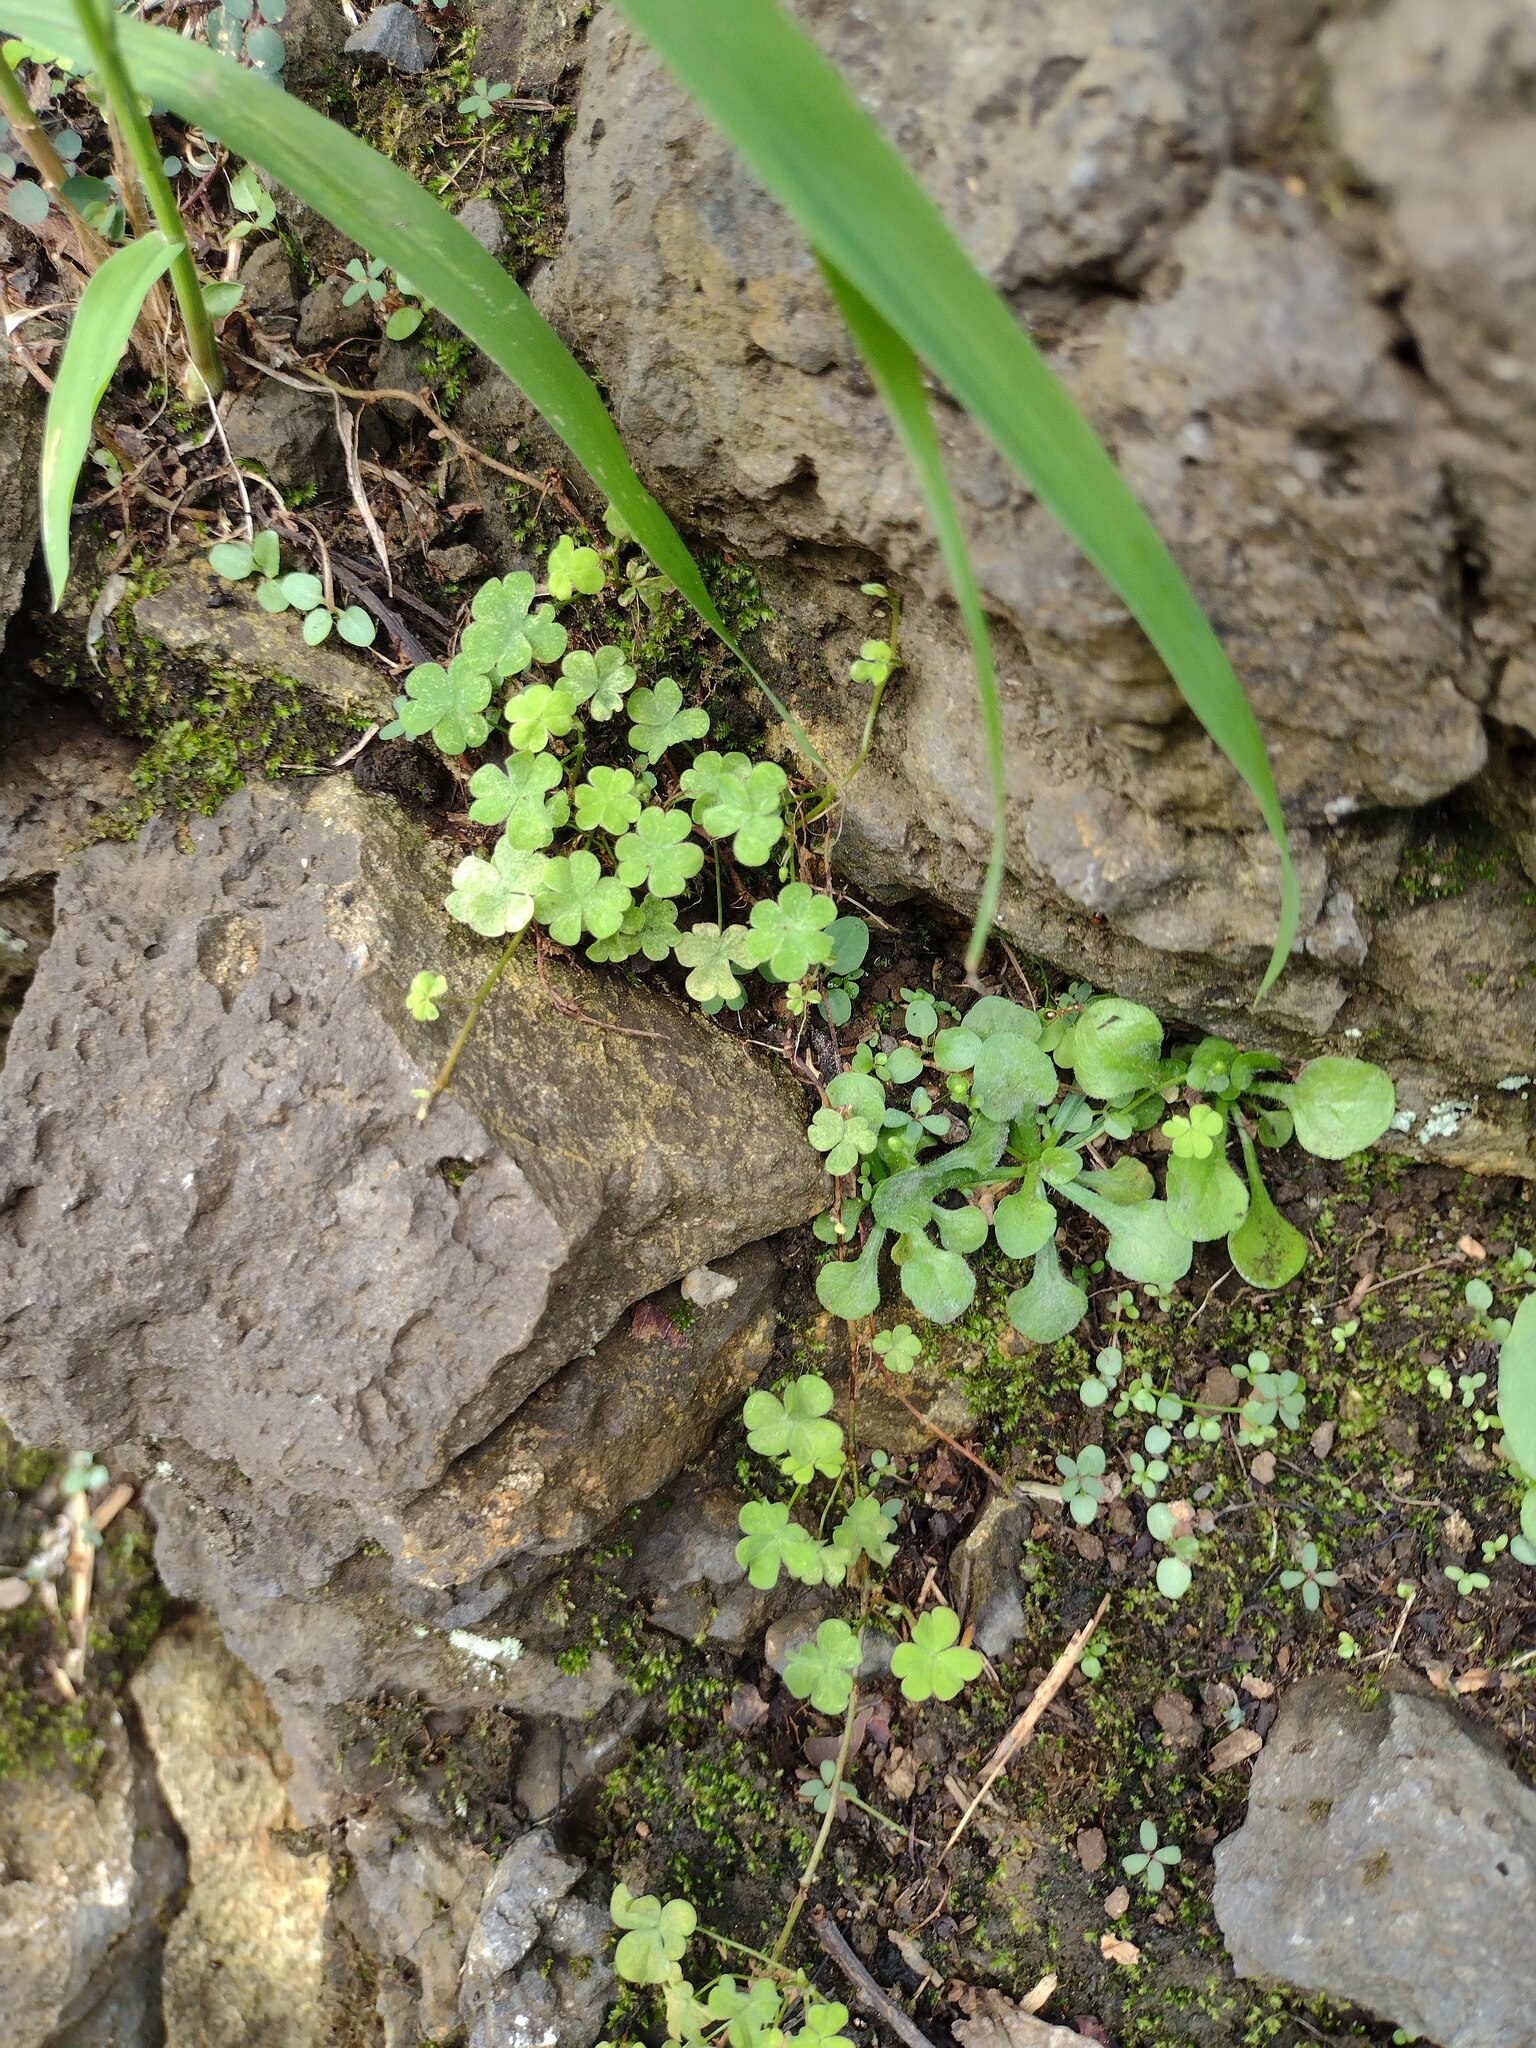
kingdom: Plantae
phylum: Tracheophyta
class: Magnoliopsida
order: Asterales
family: Asteraceae
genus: Erigeron
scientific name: Erigeron bellioides
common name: Bellorita
